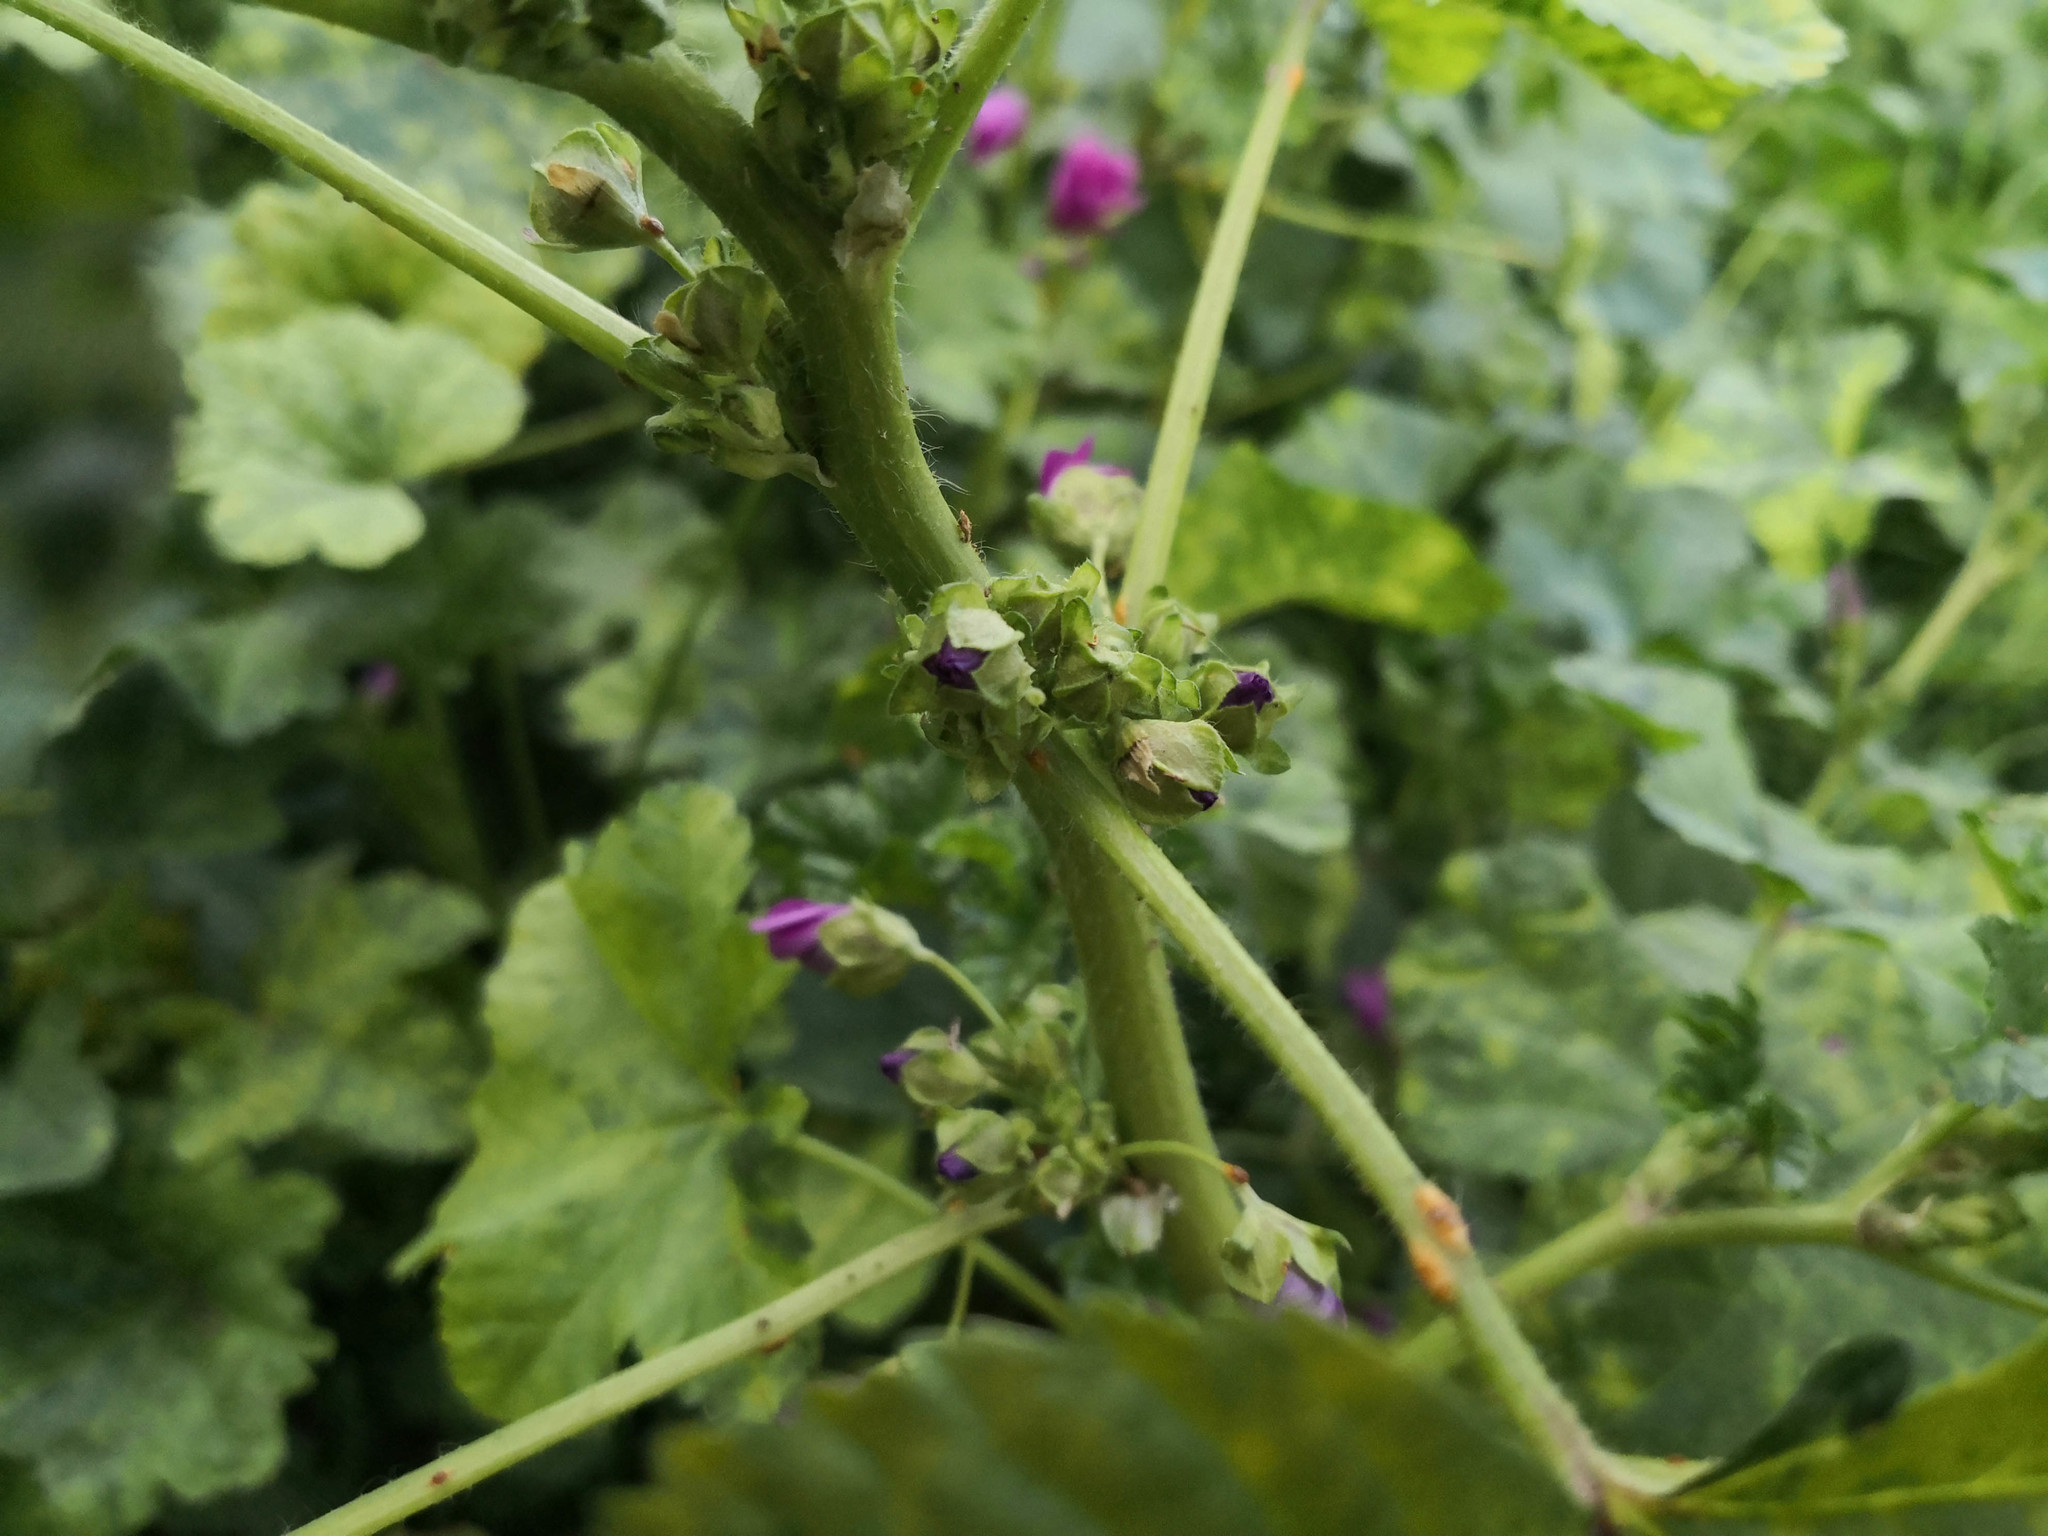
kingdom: Plantae
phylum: Tracheophyta
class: Magnoliopsida
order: Malvales
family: Malvaceae
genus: Malva
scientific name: Malva sylvestris
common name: Common mallow
